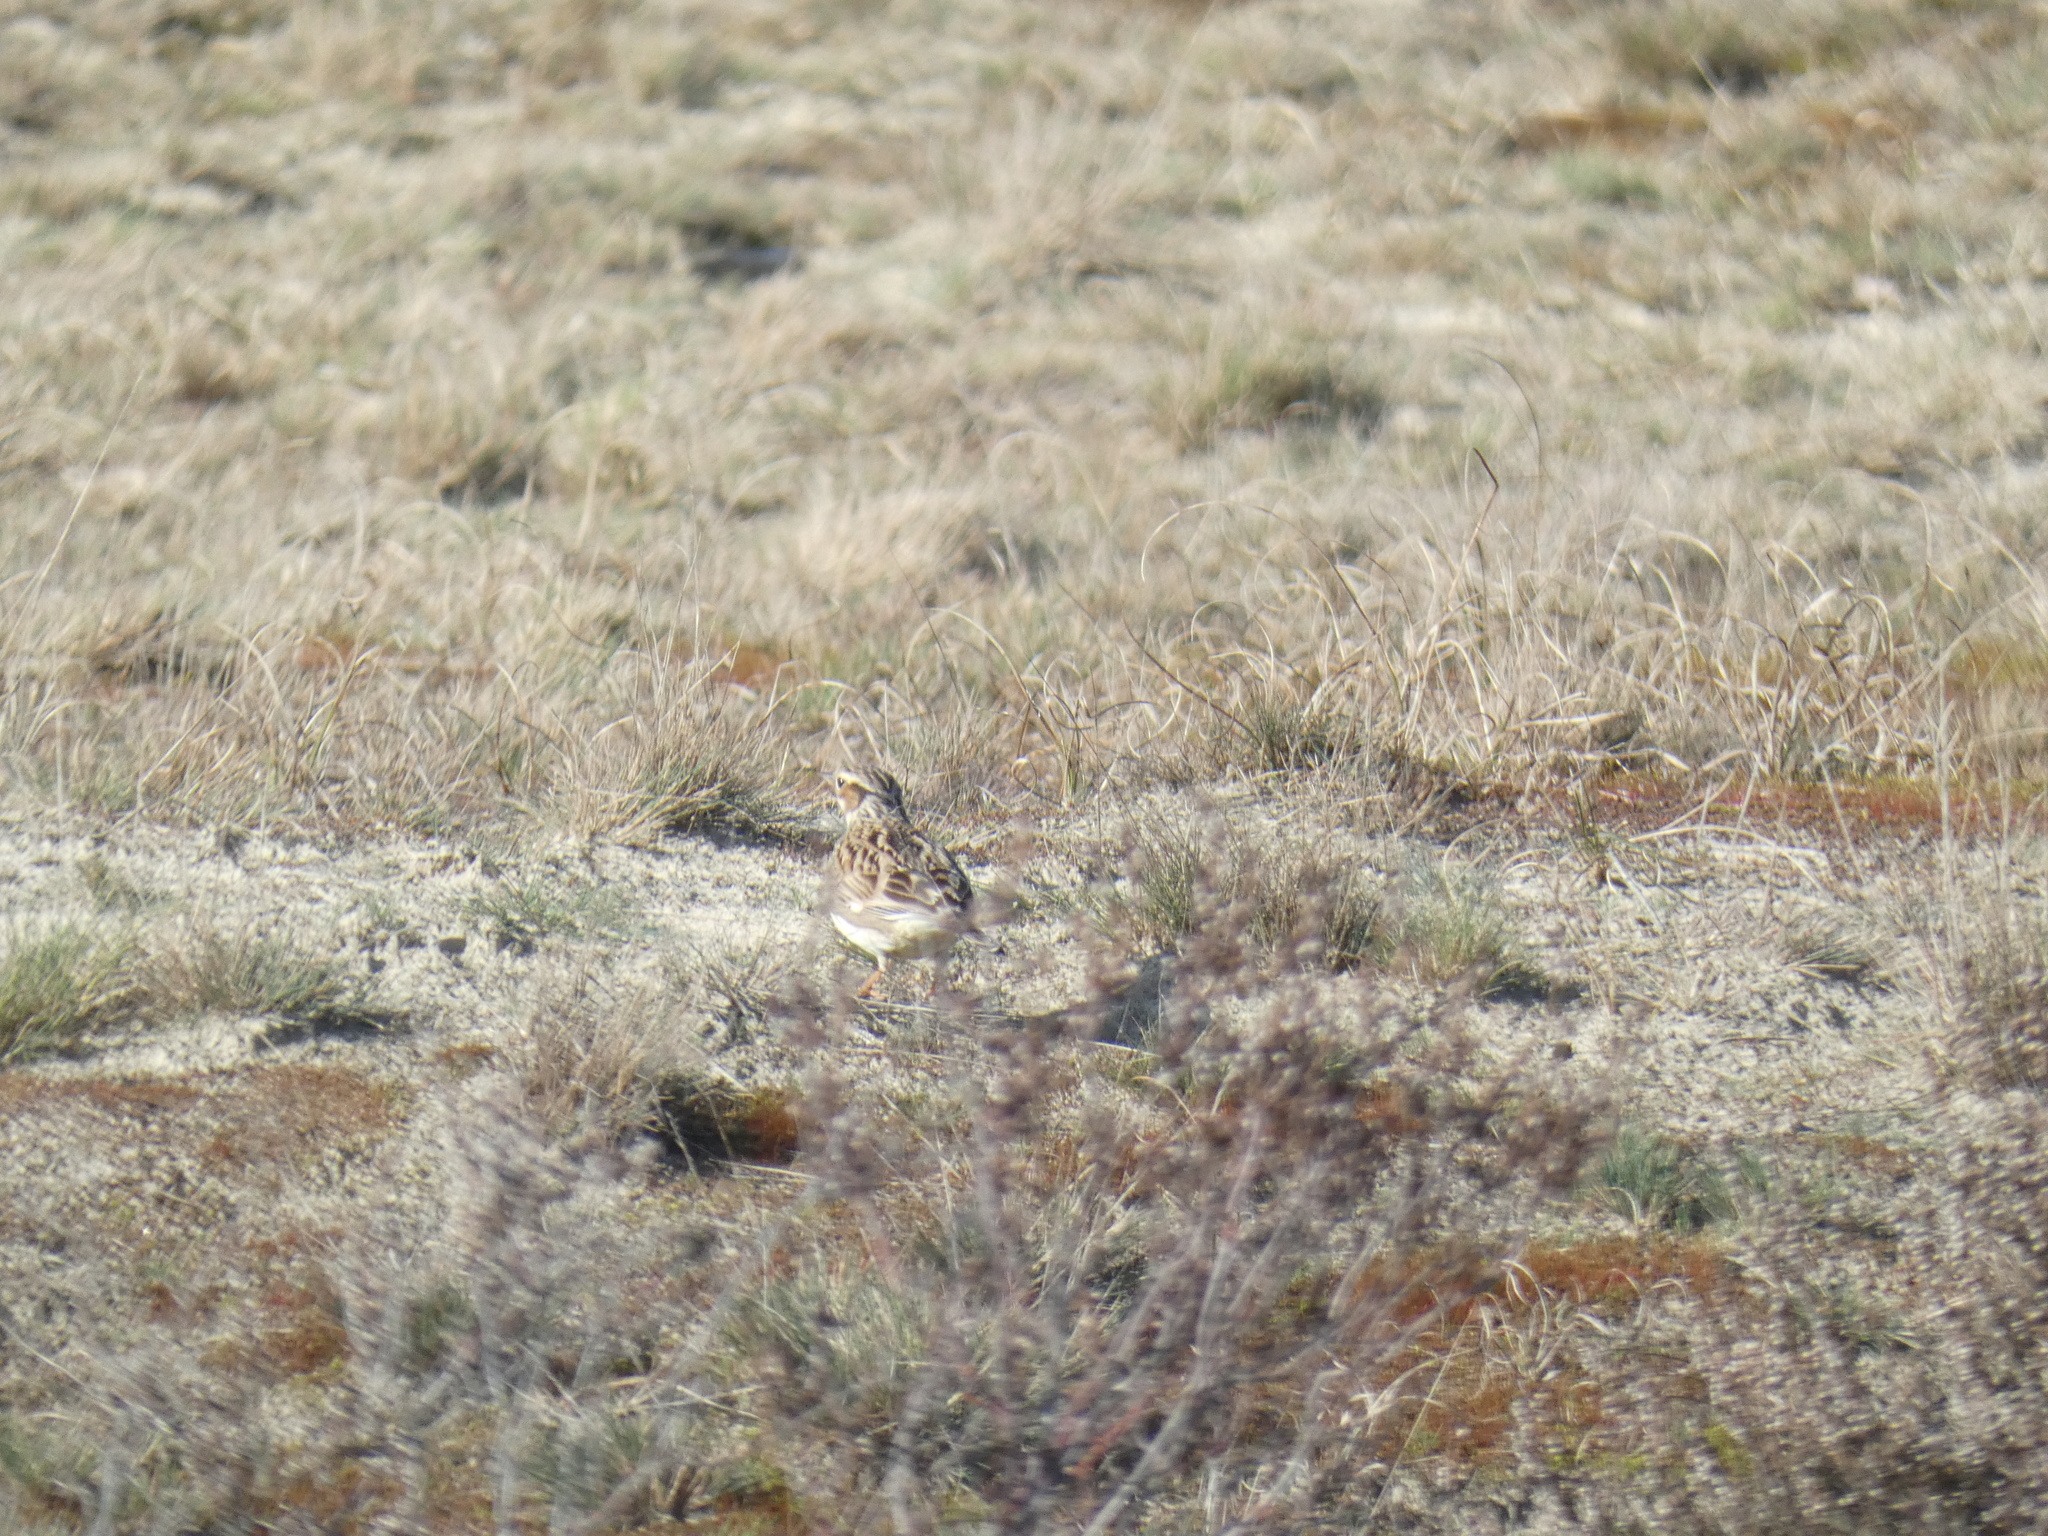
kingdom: Animalia
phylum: Chordata
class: Aves
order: Passeriformes
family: Alaudidae
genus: Lullula
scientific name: Lullula arborea
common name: Woodlark
